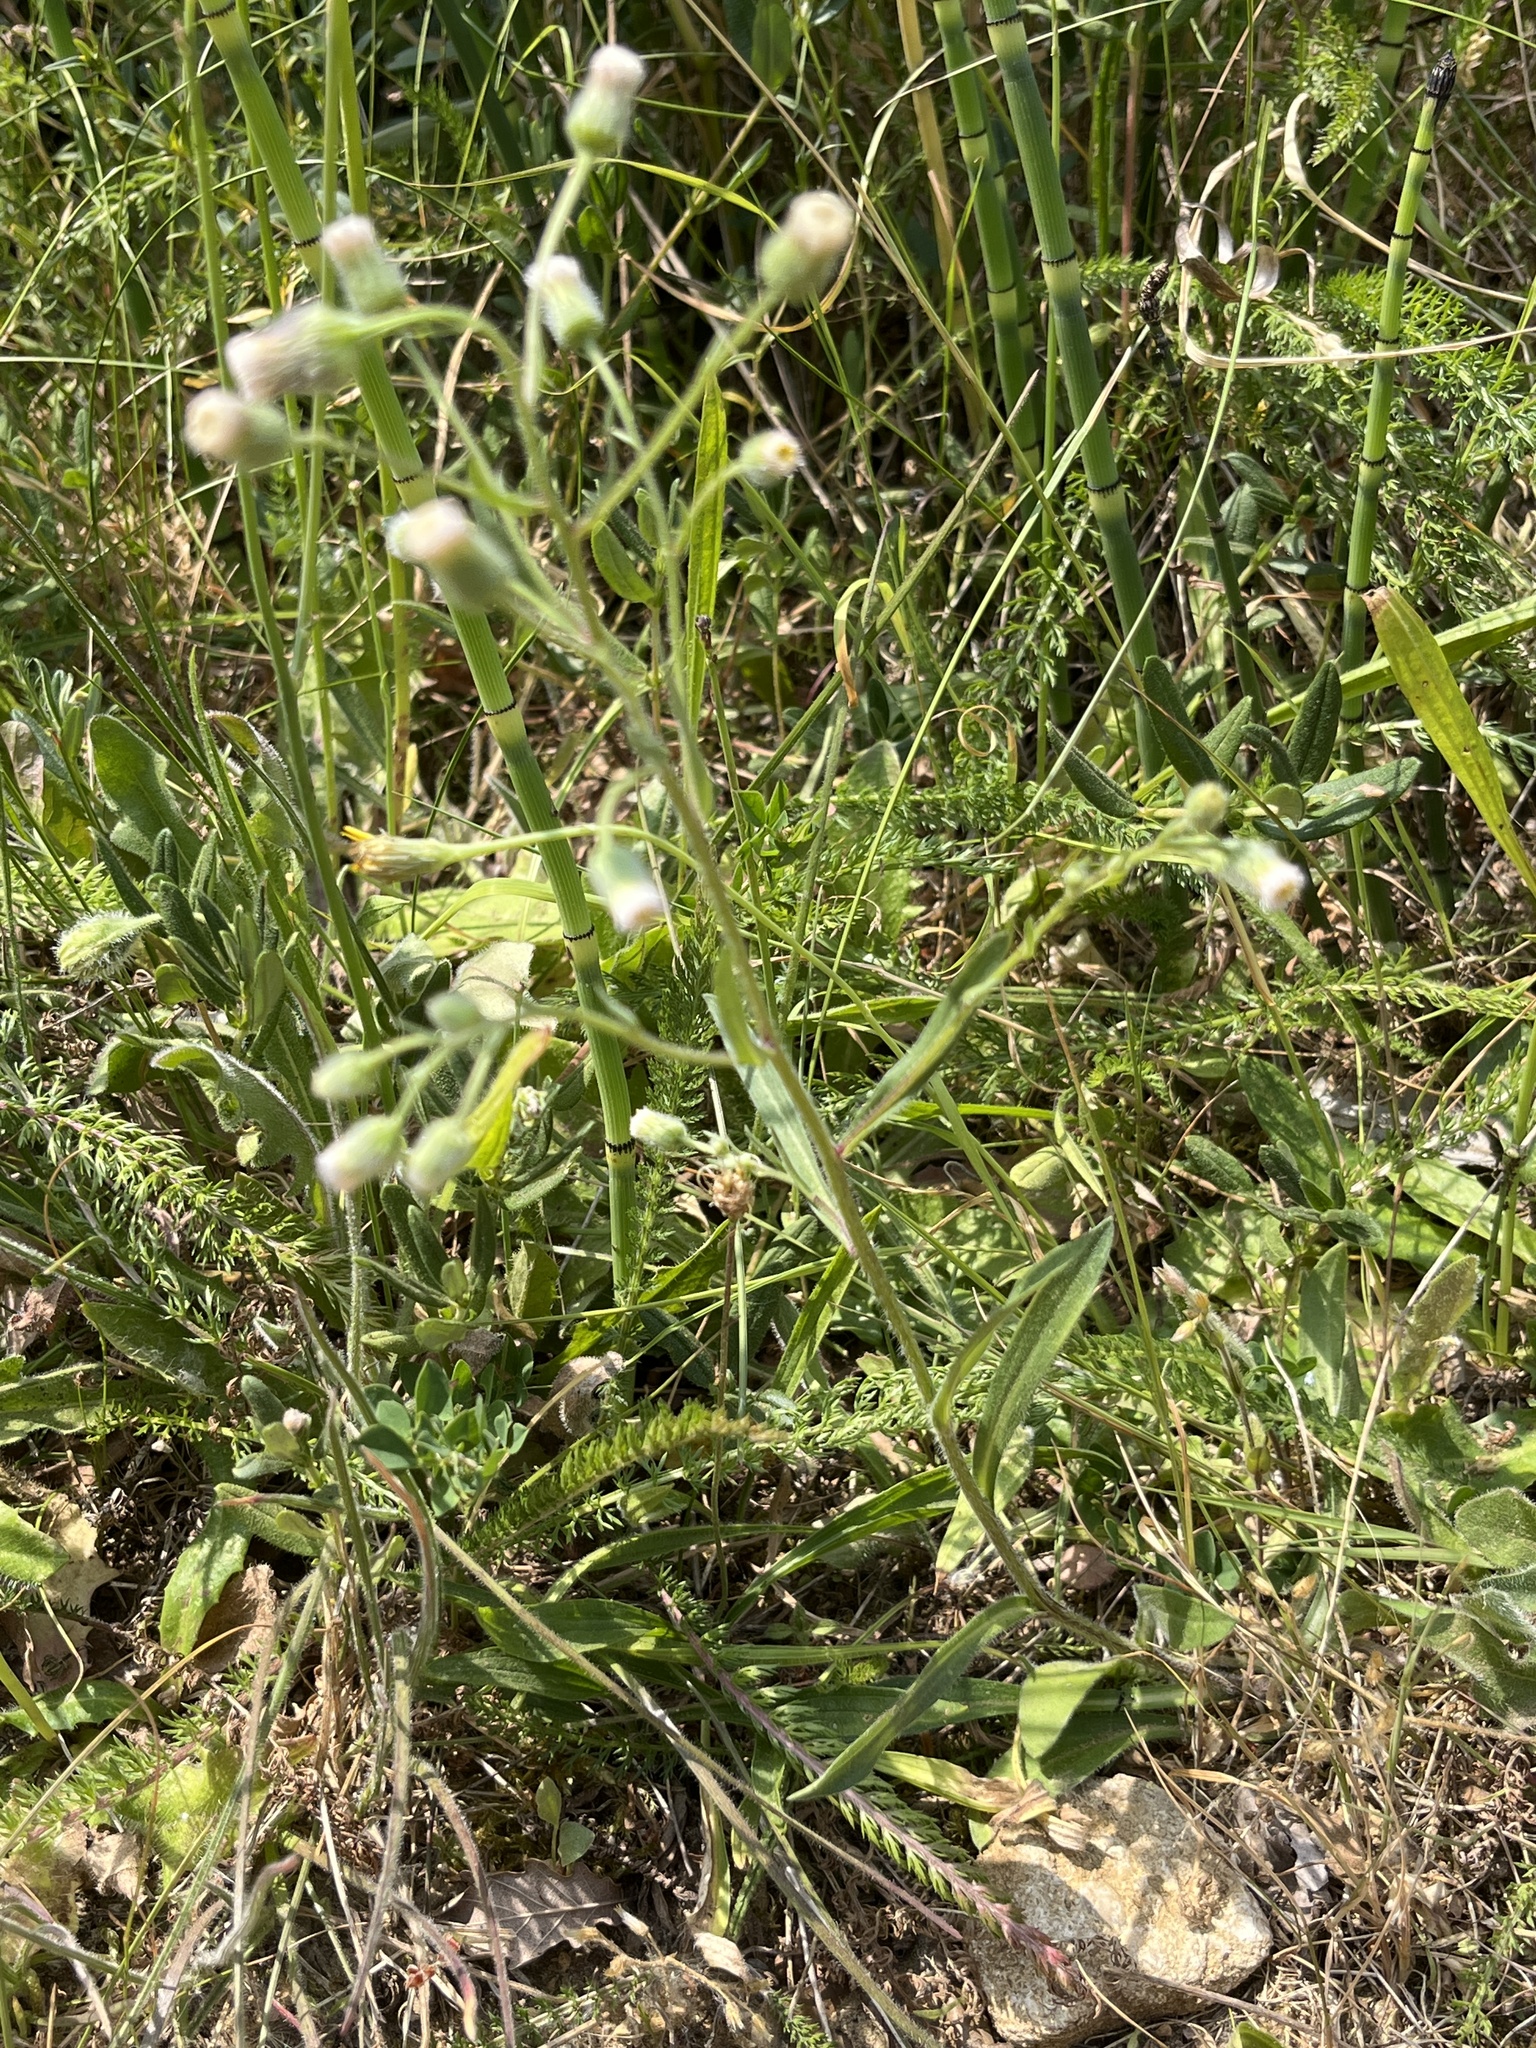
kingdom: Plantae
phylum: Tracheophyta
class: Magnoliopsida
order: Asterales
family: Asteraceae
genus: Erigeron
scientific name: Erigeron acris
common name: Blue fleabane
